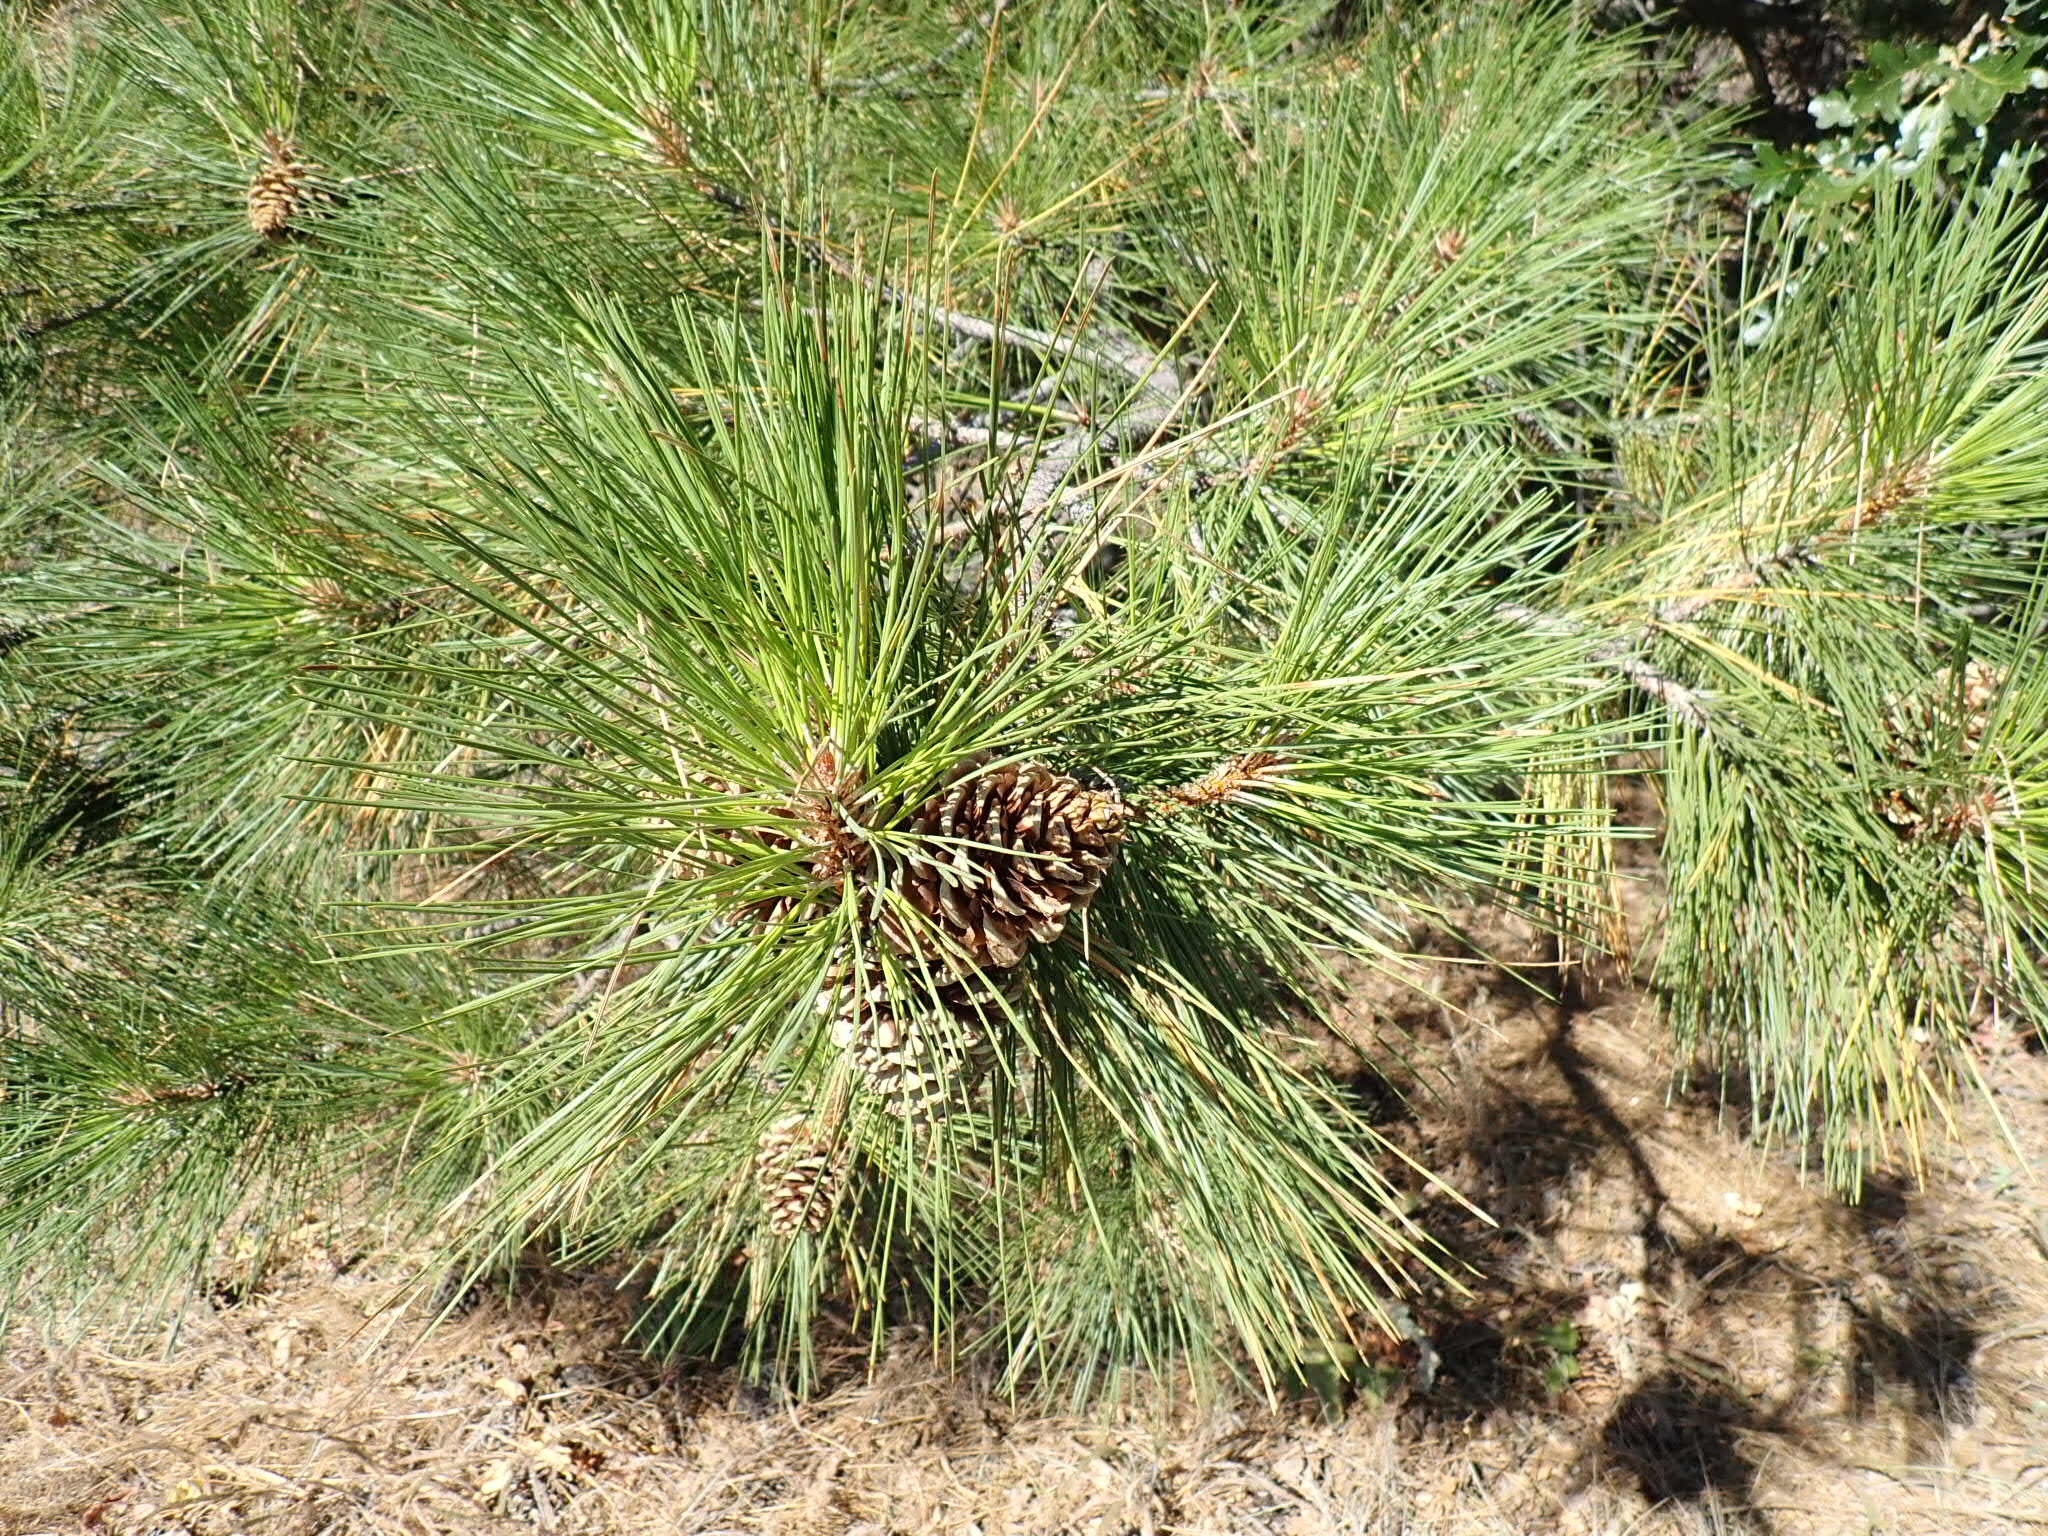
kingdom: Plantae
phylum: Tracheophyta
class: Pinopsida
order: Pinales
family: Pinaceae
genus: Pinus
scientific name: Pinus ponderosa
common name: Western yellow-pine
